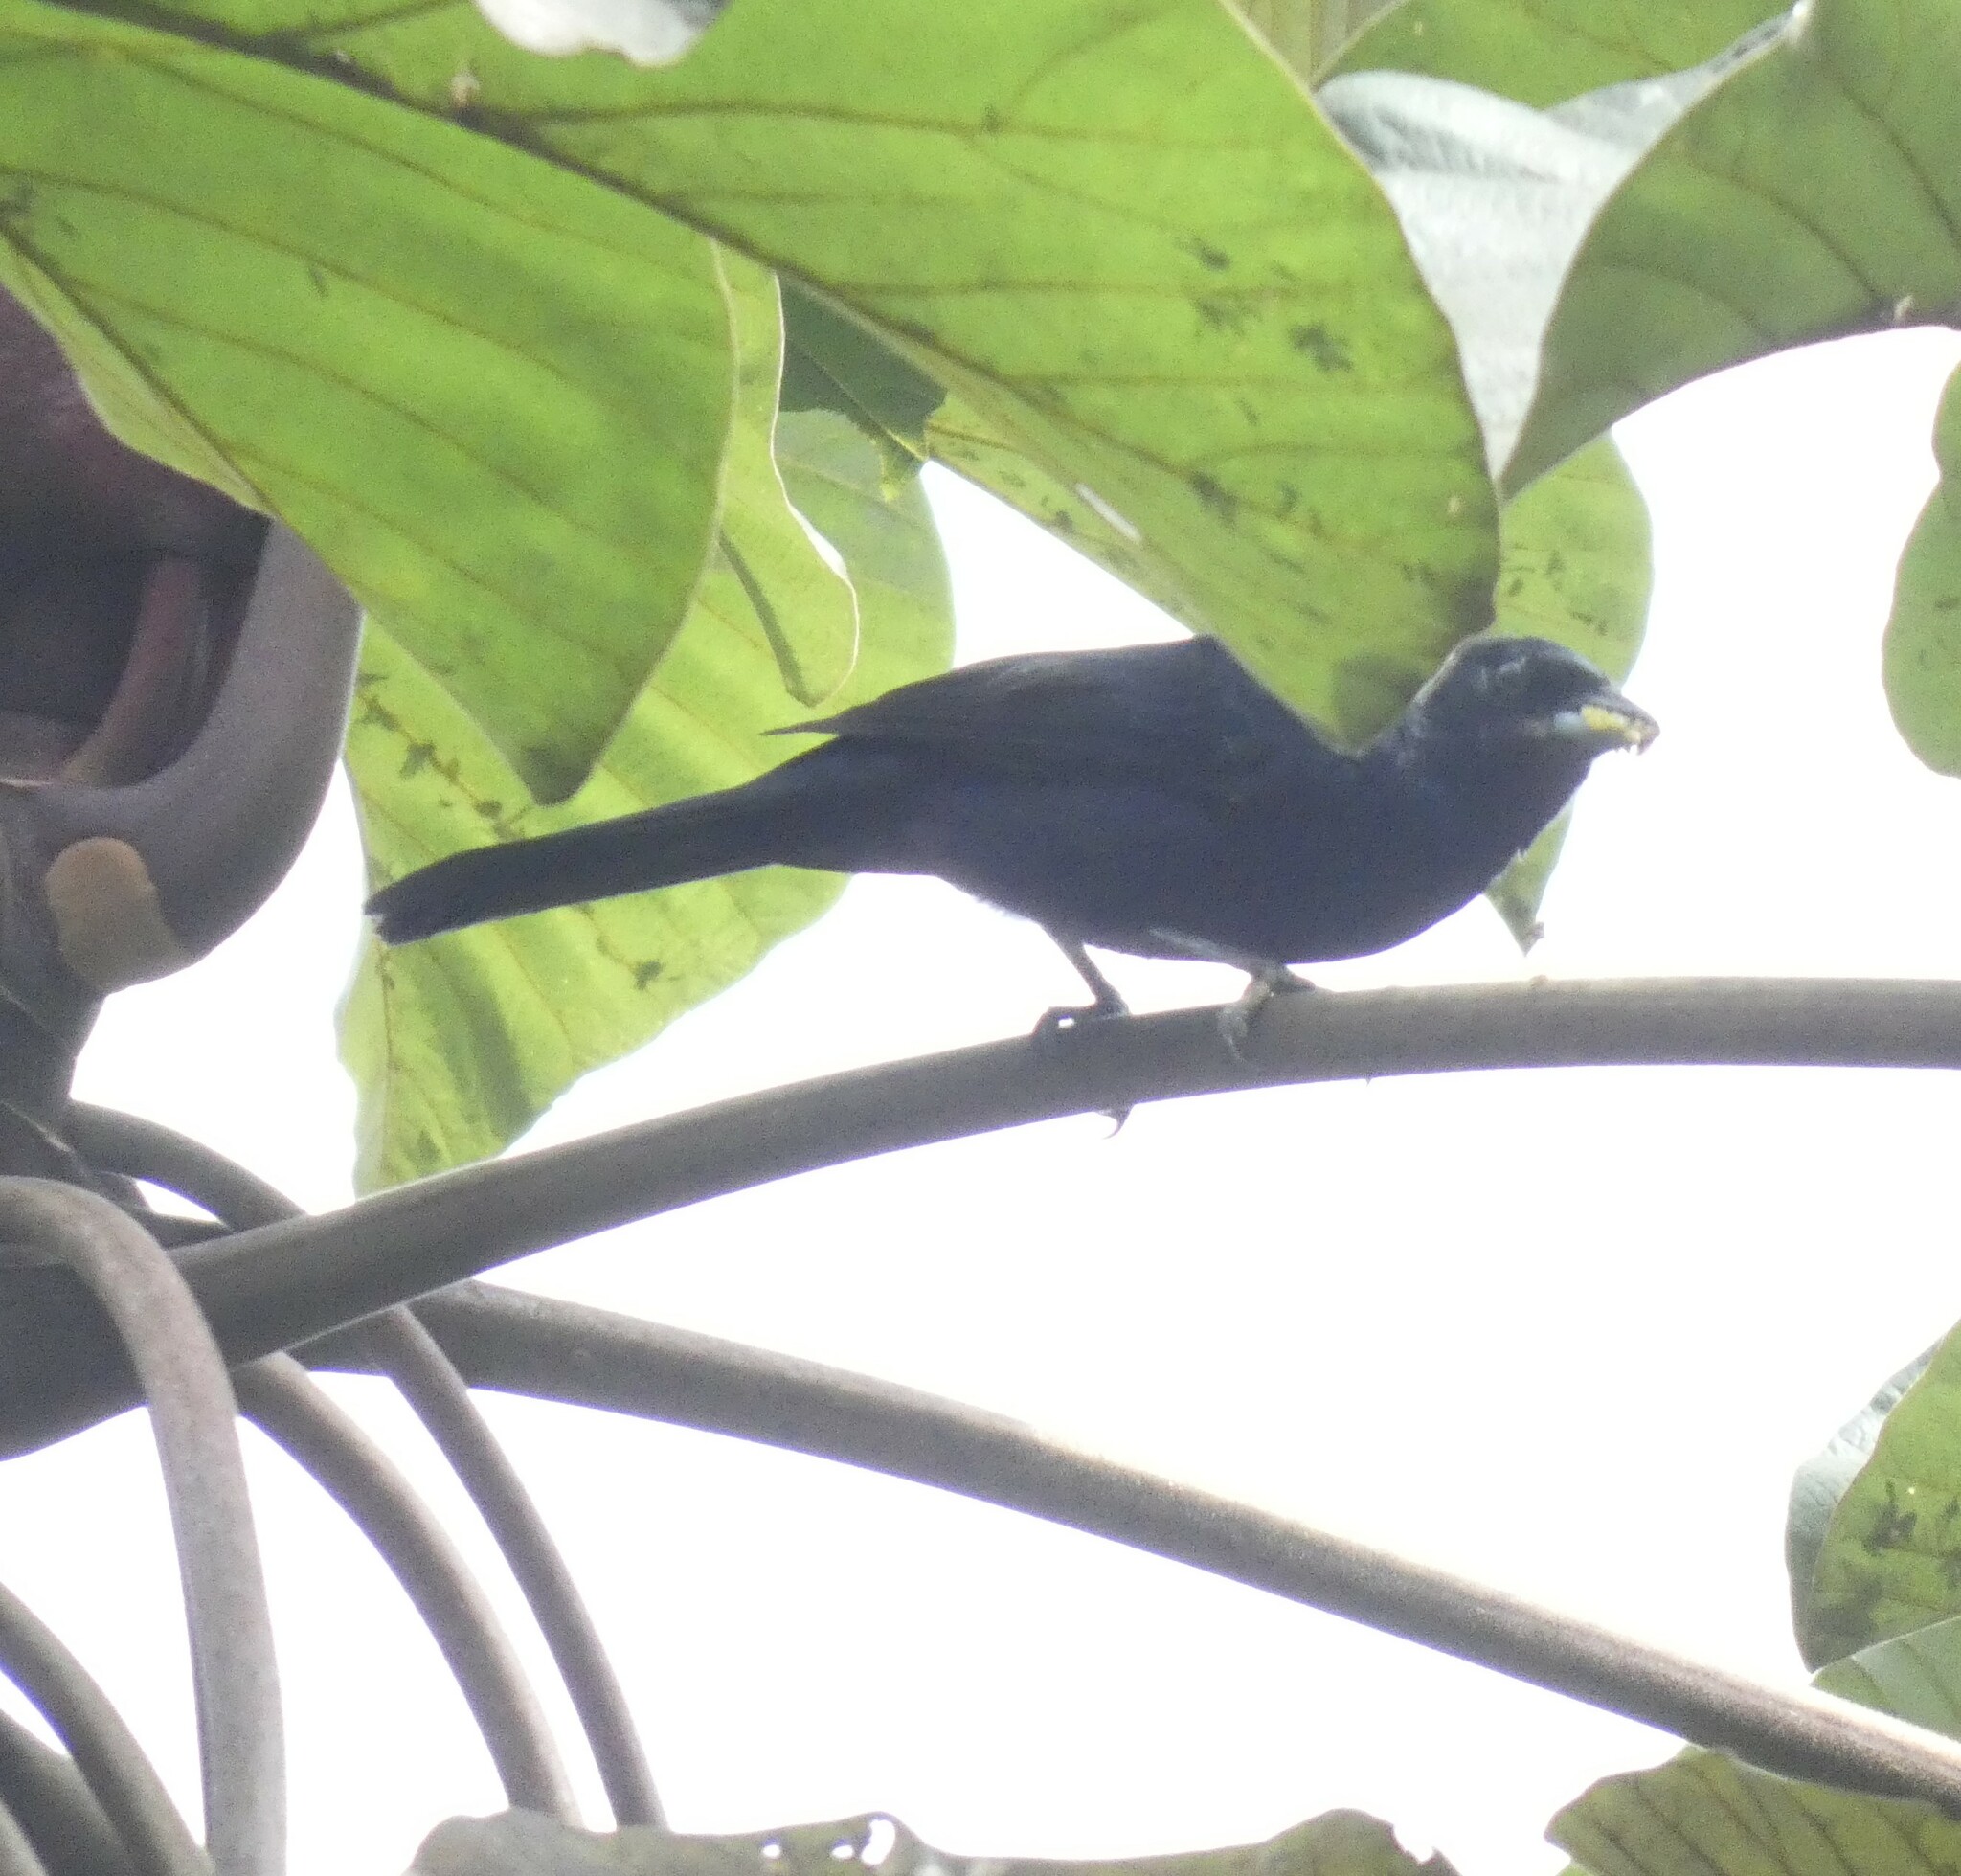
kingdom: Animalia
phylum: Chordata
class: Aves
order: Passeriformes
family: Thraupidae
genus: Tachyphonus
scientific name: Tachyphonus coronatus
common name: Ruby-crowned tanager
